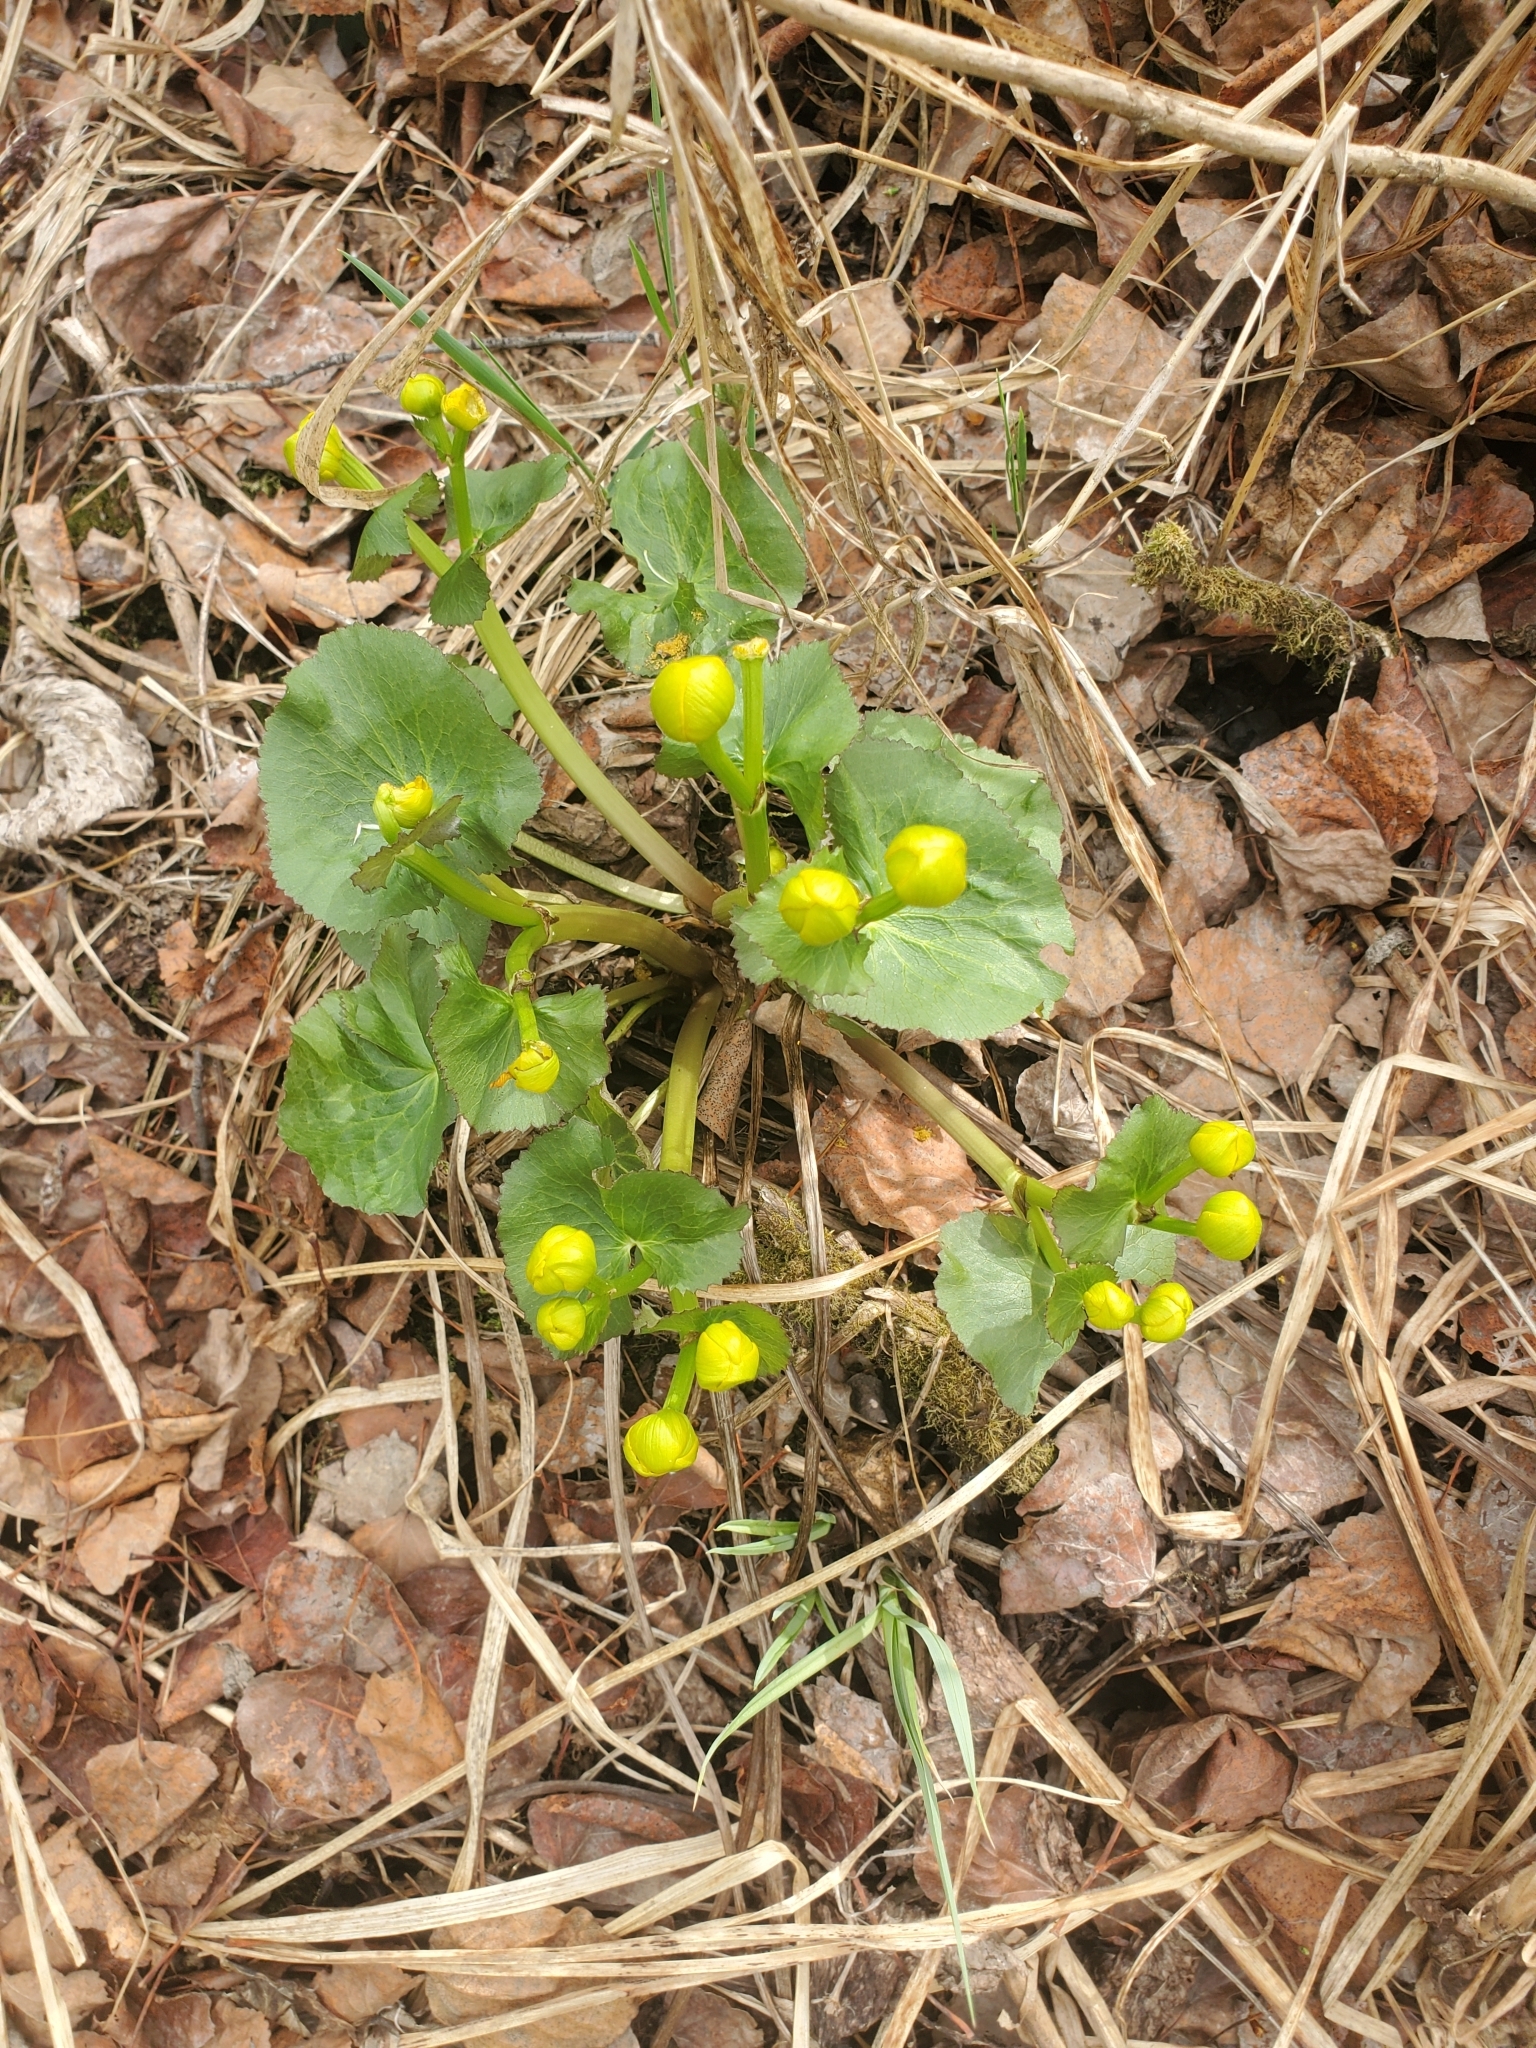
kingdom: Plantae
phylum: Tracheophyta
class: Magnoliopsida
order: Ranunculales
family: Ranunculaceae
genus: Caltha
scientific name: Caltha palustris
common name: Marsh marigold
